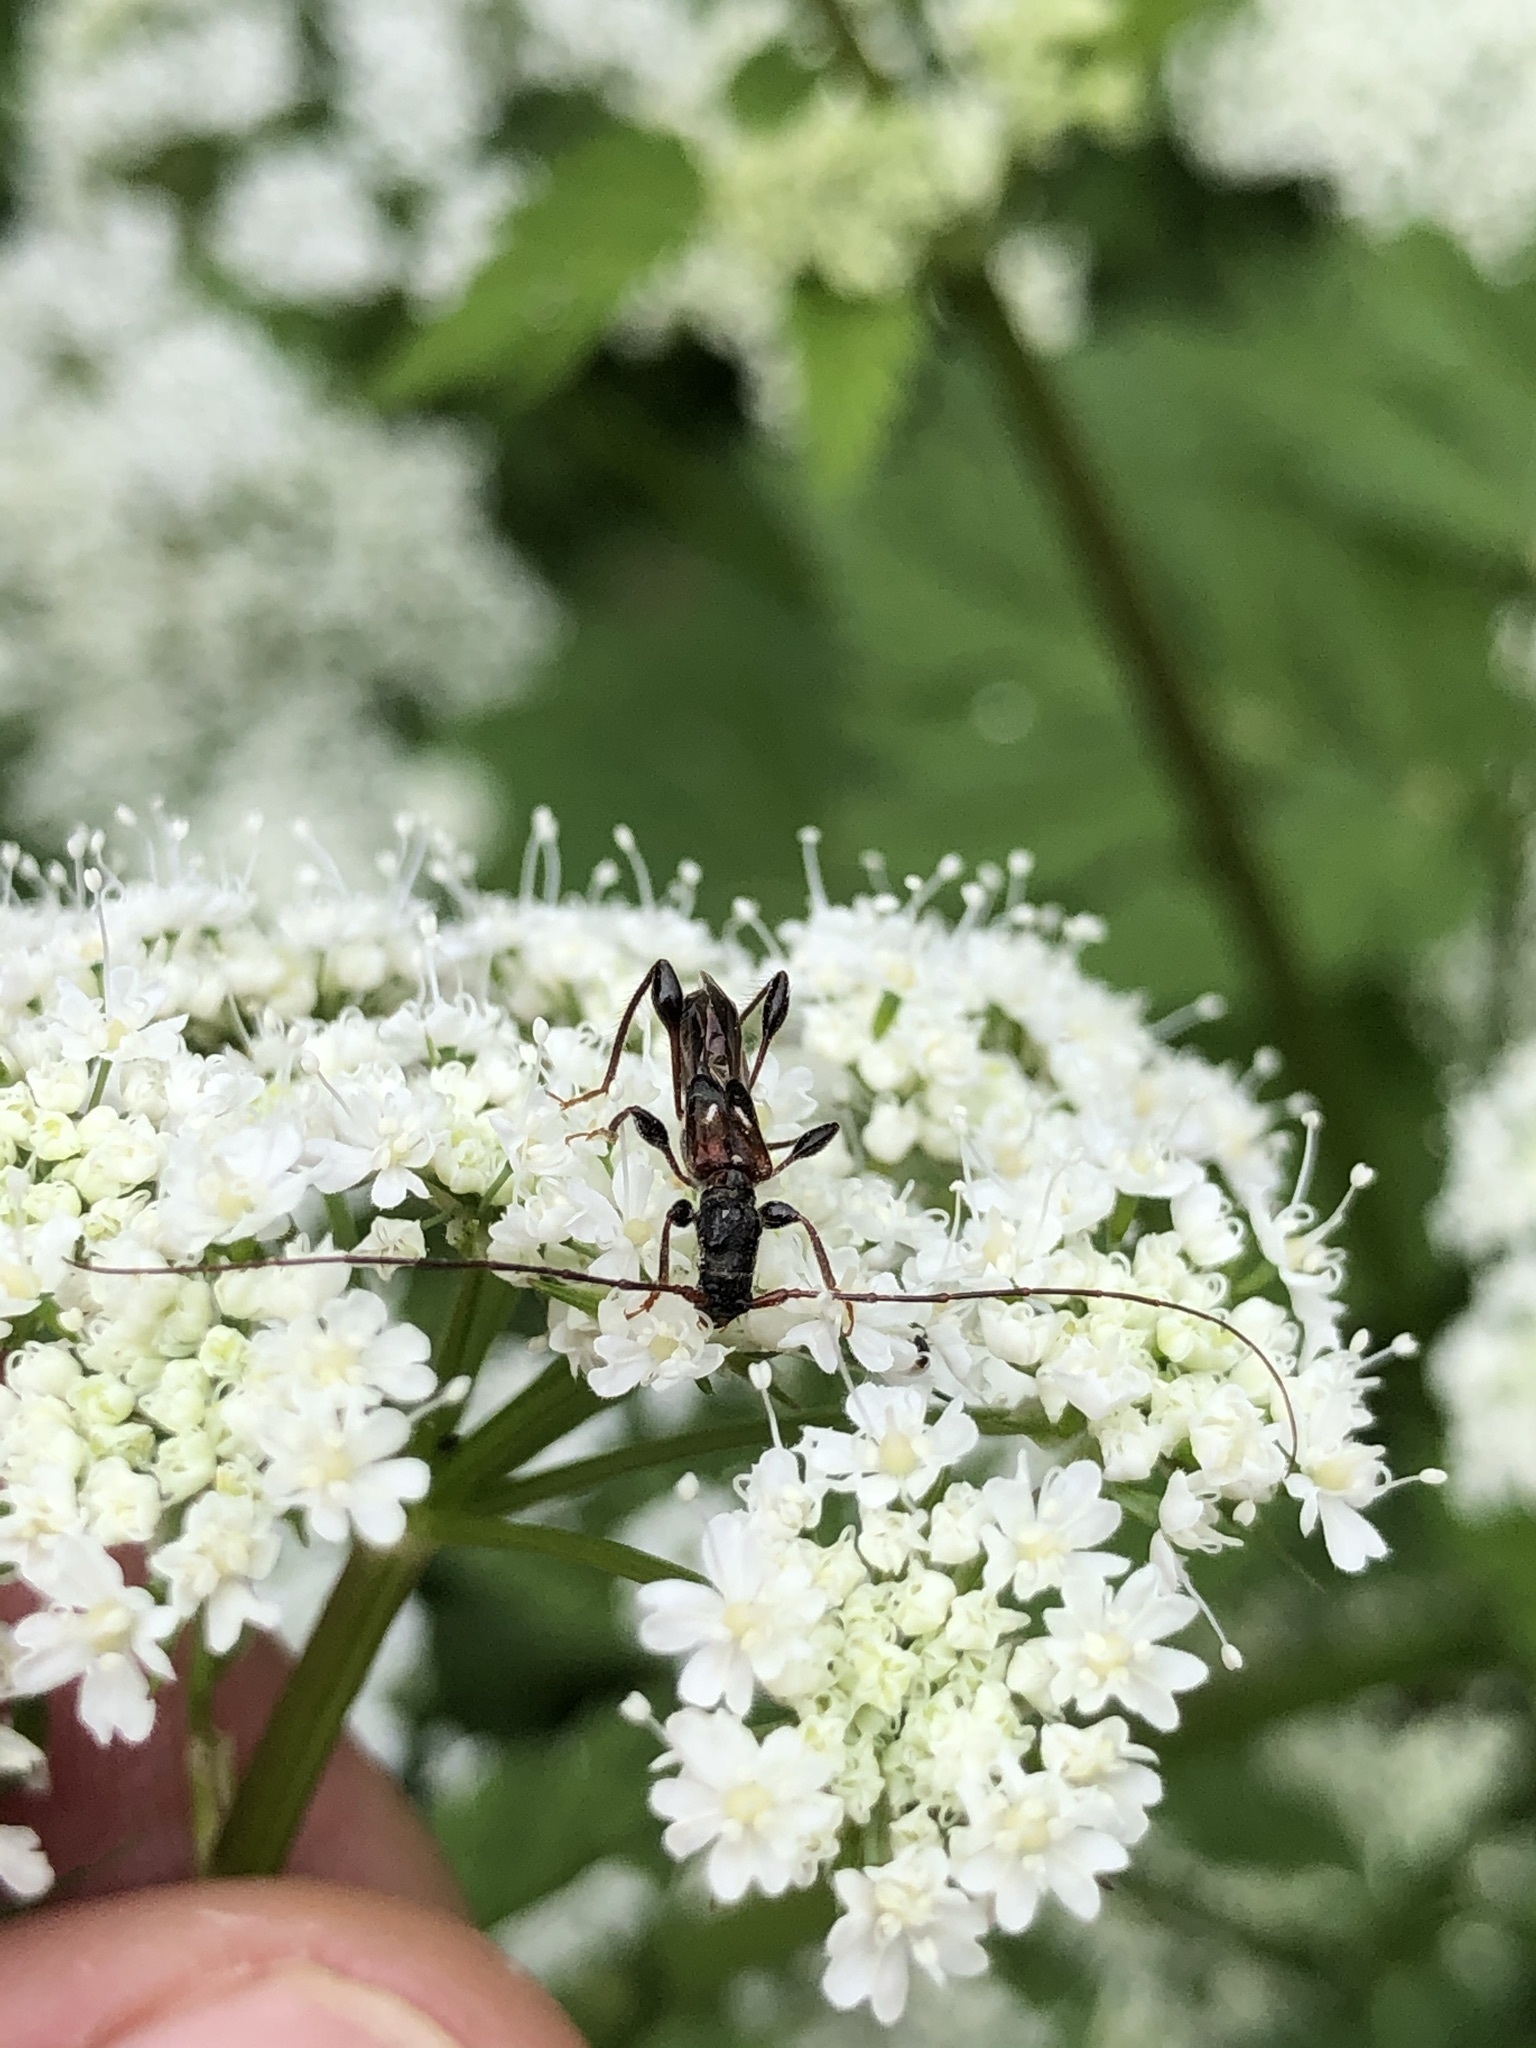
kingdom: Animalia
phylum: Arthropoda
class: Insecta
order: Coleoptera
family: Cerambycidae
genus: Molorchus
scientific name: Molorchus minor
